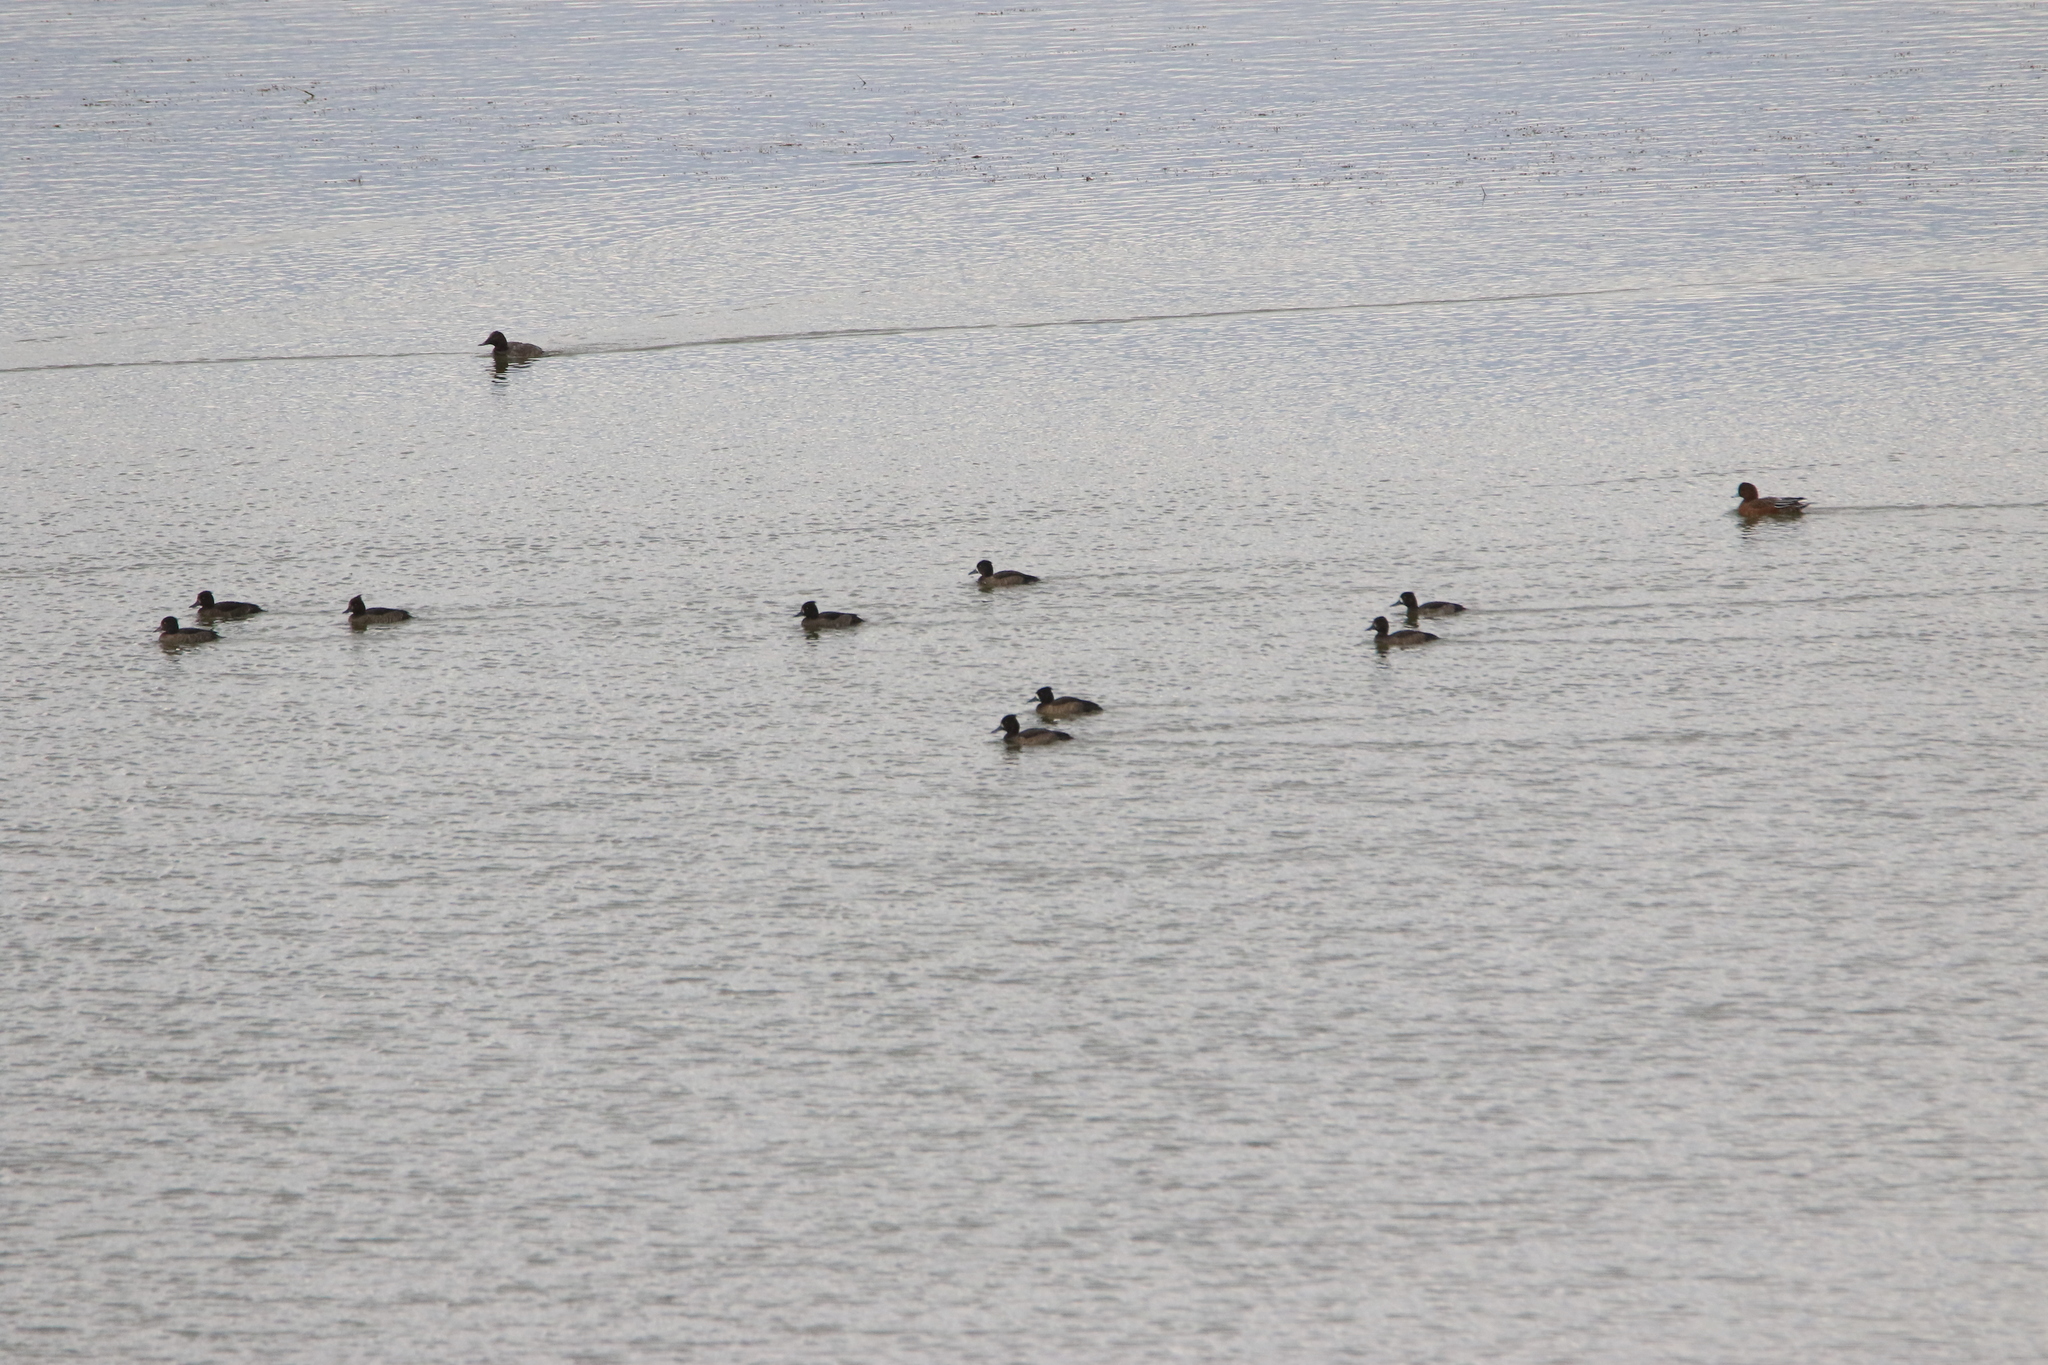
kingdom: Animalia
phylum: Chordata
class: Aves
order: Anseriformes
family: Anatidae
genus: Aythya
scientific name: Aythya fuligula
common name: Tufted duck
